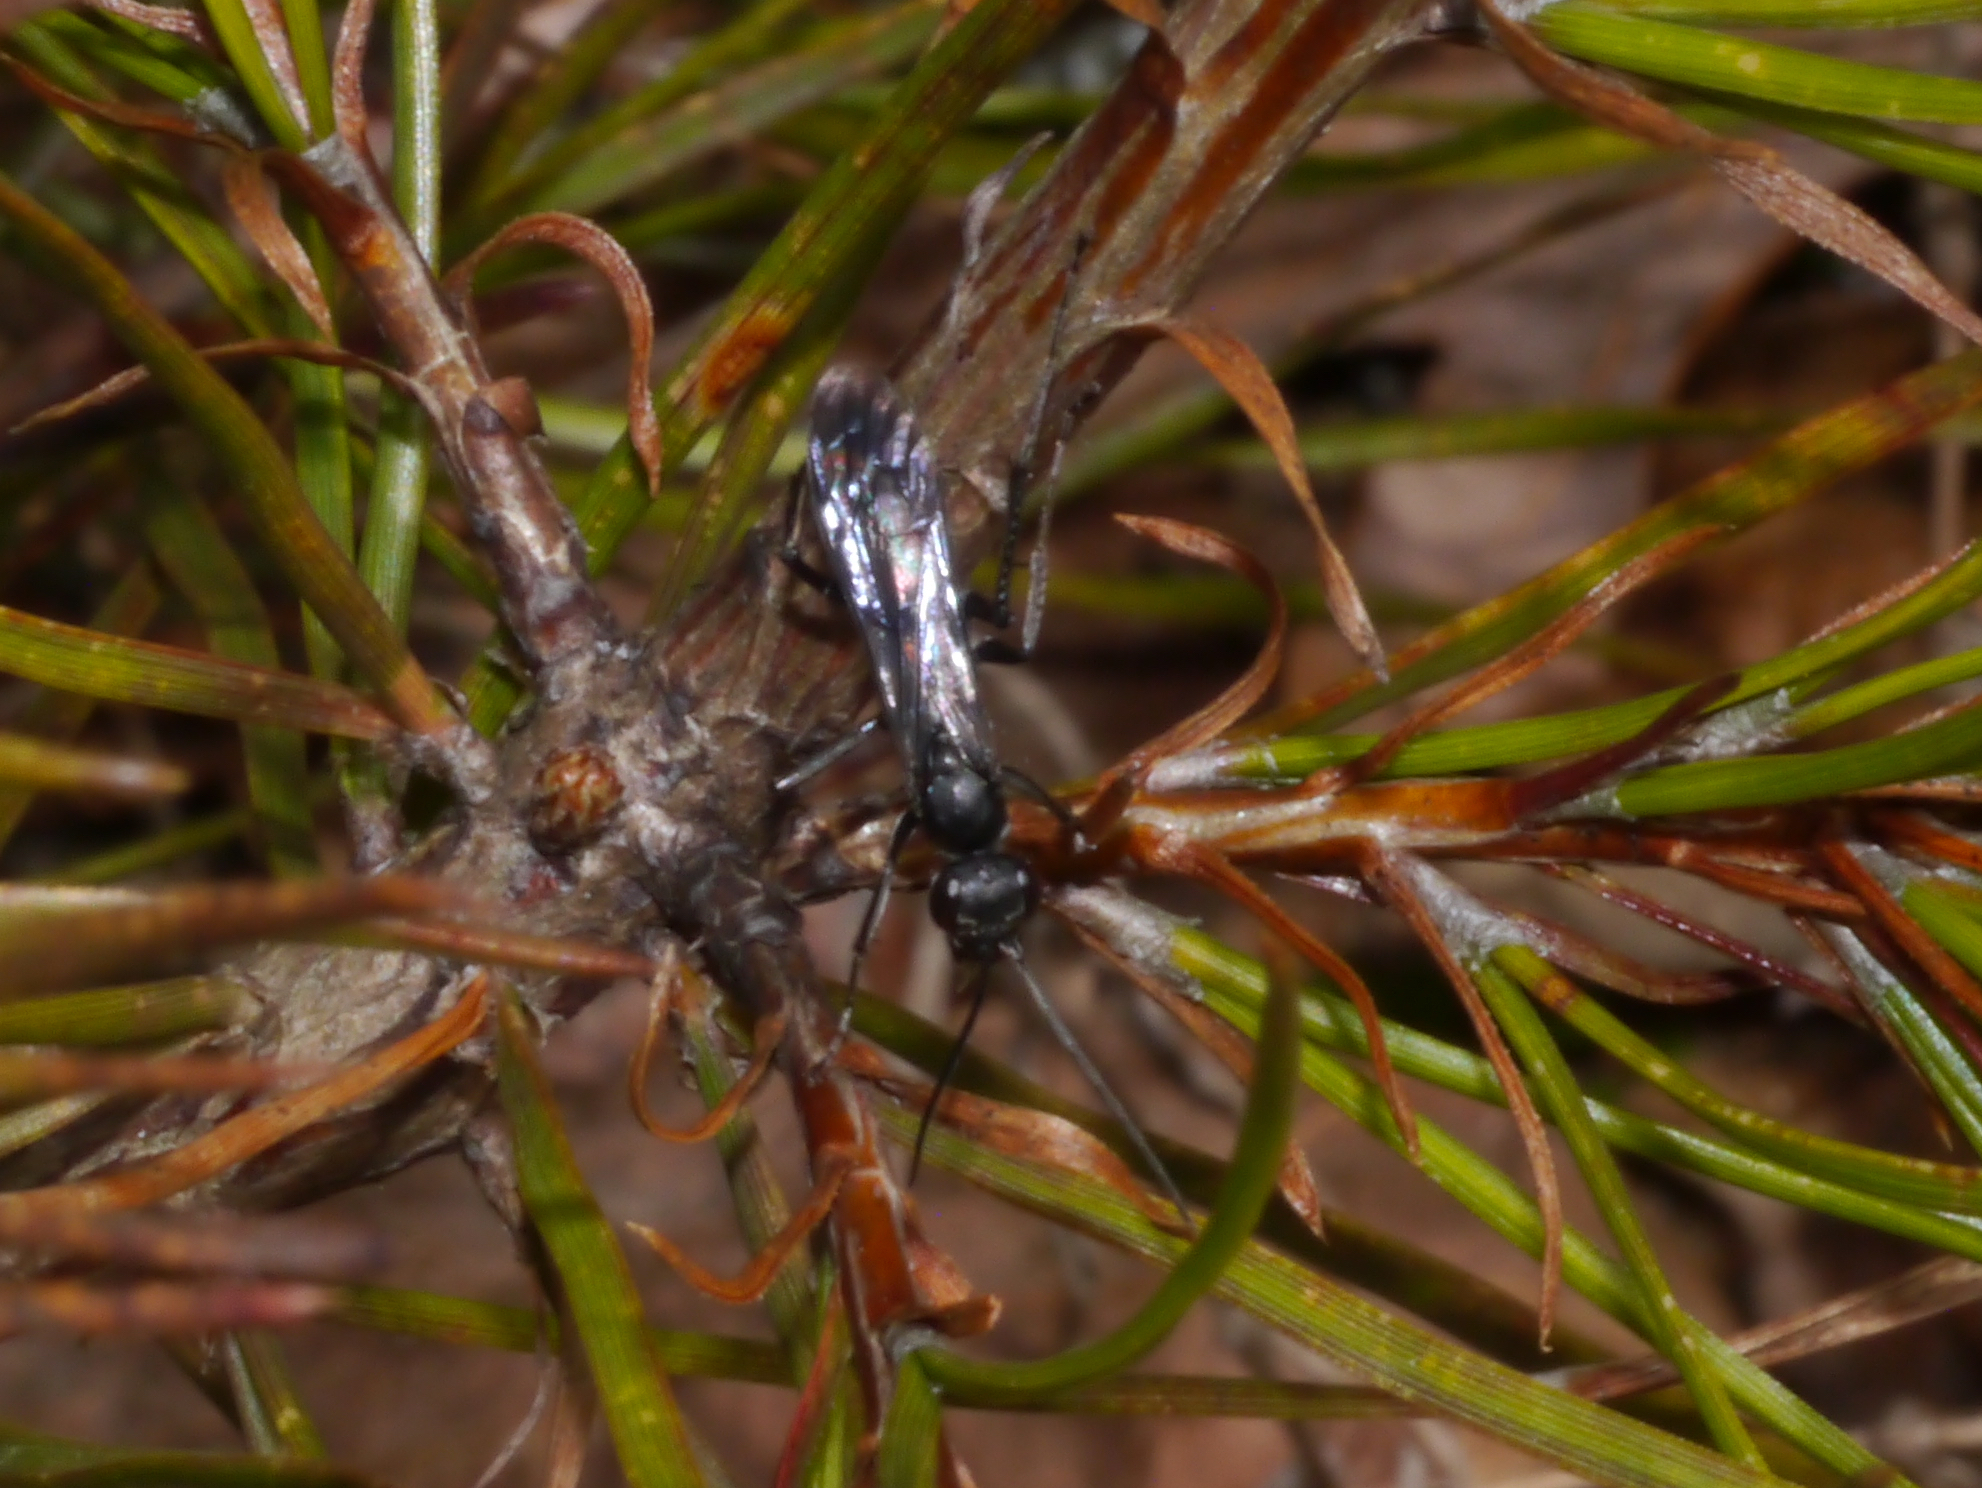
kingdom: Animalia
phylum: Arthropoda
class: Insecta
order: Hymenoptera
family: Pompilidae
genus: Priocnemis
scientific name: Priocnemis minorata
